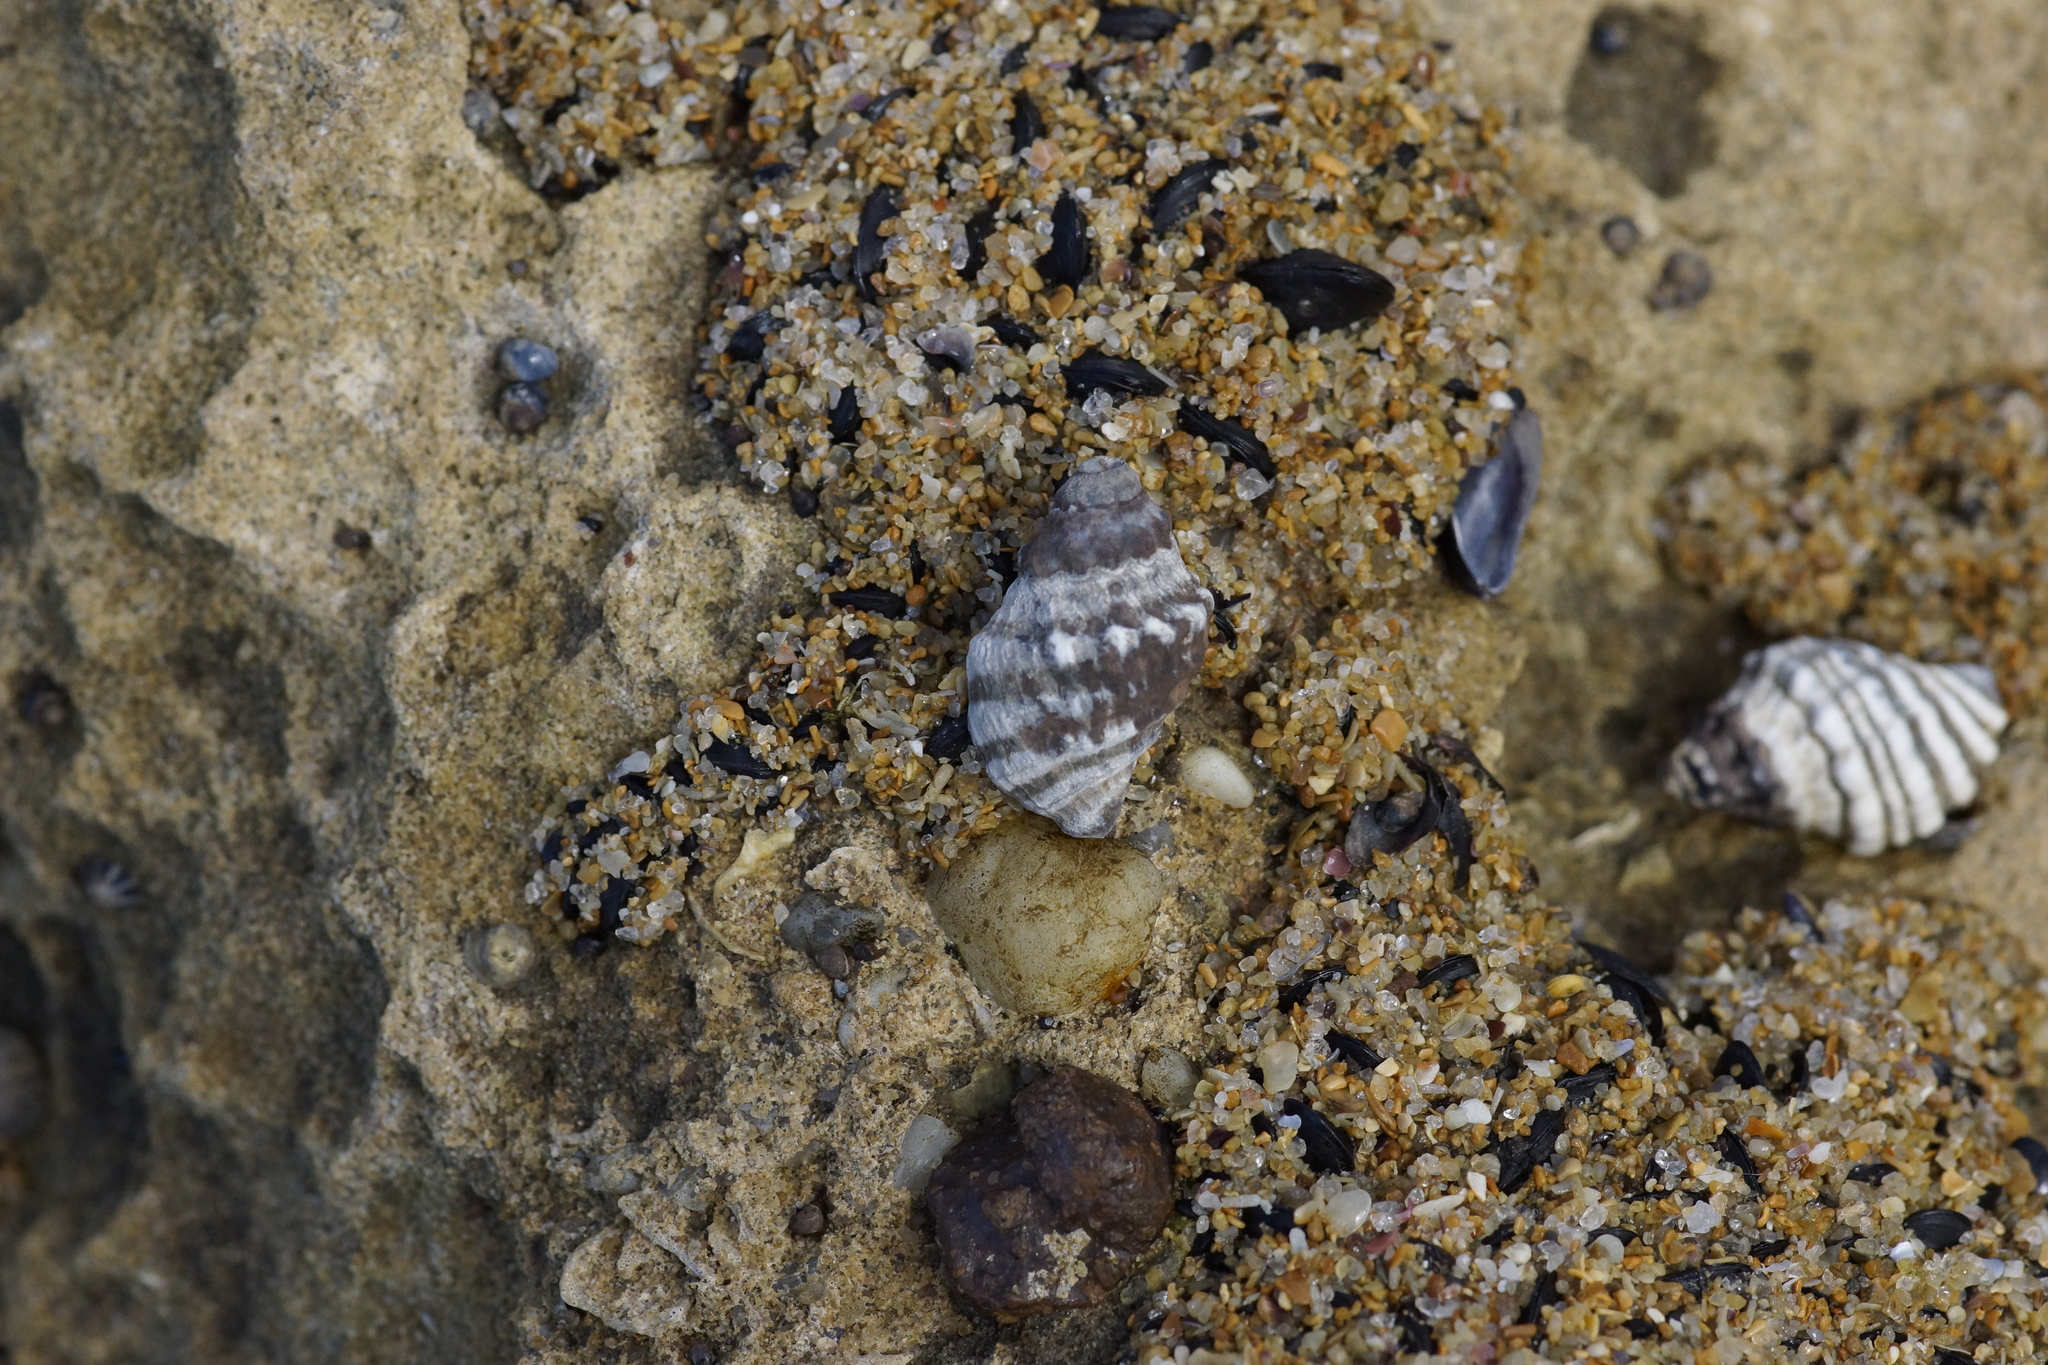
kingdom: Animalia
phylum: Mollusca
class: Gastropoda
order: Neogastropoda
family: Muricidae
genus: Bedeva
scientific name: Bedeva vinosa
